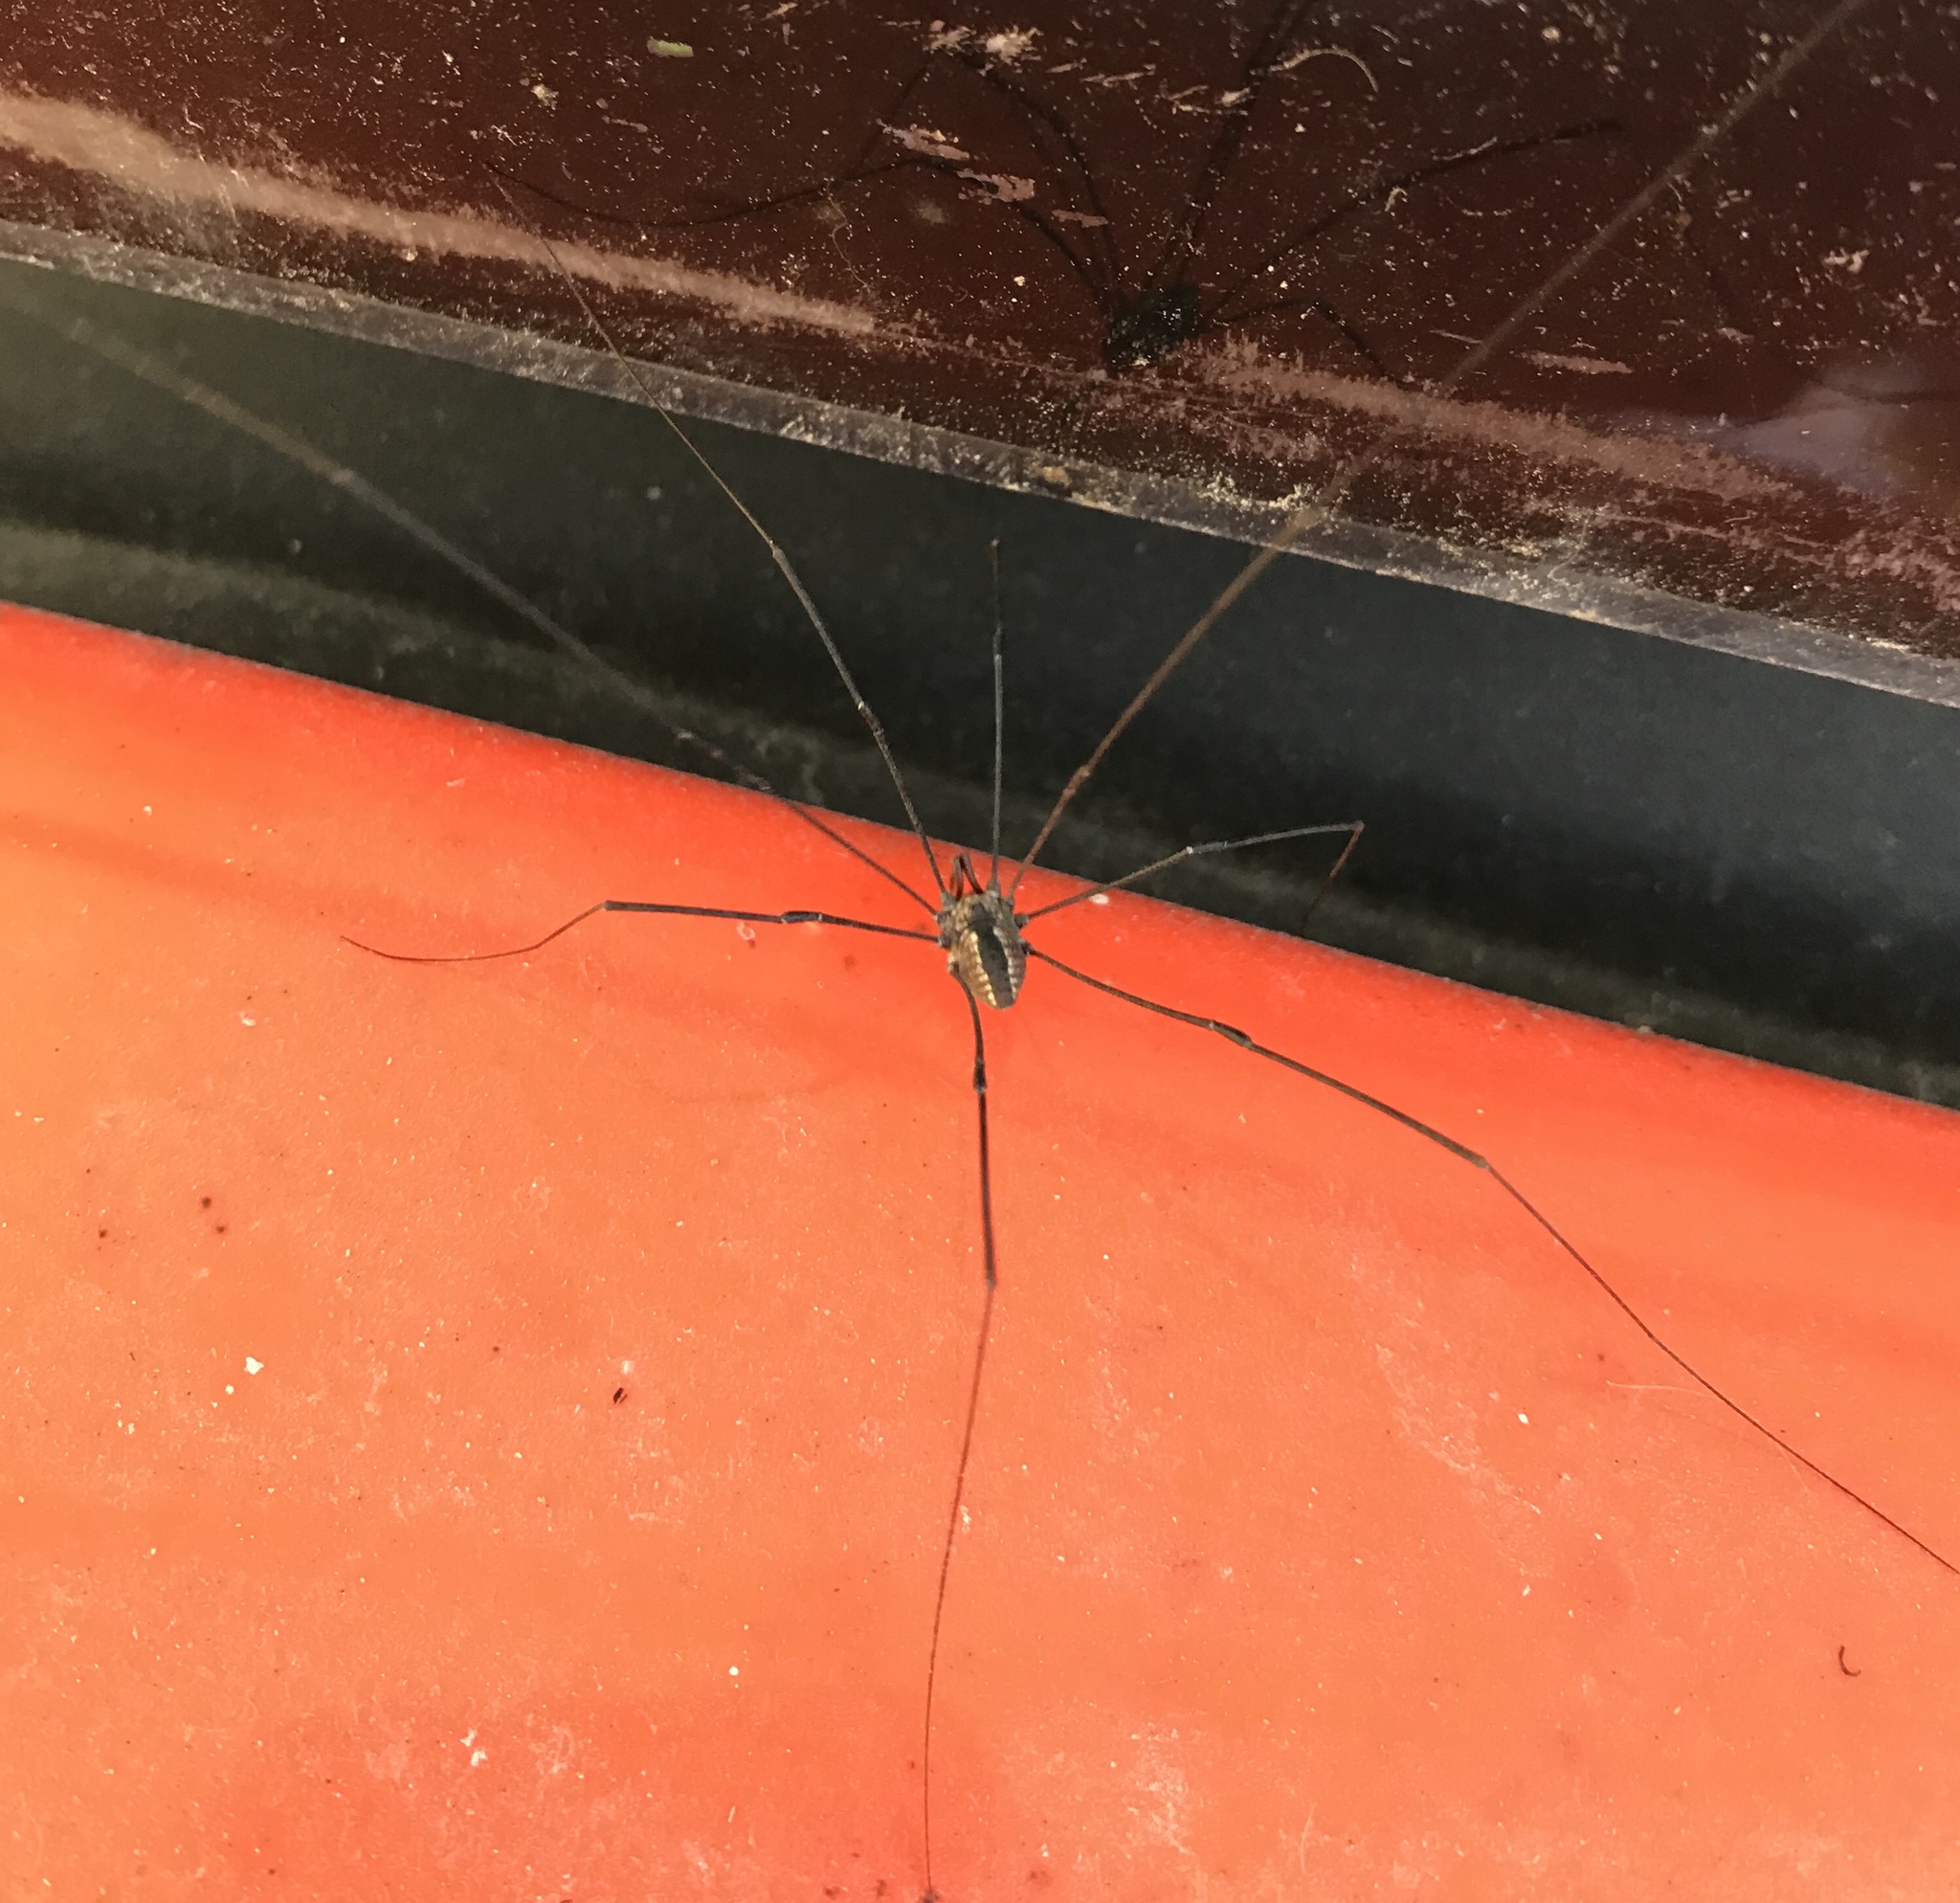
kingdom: Animalia
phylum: Arthropoda
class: Arachnida
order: Opiliones
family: Sclerosomatidae
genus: Leiobunum
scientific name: Leiobunum vittatum
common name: Eastern harvestman
